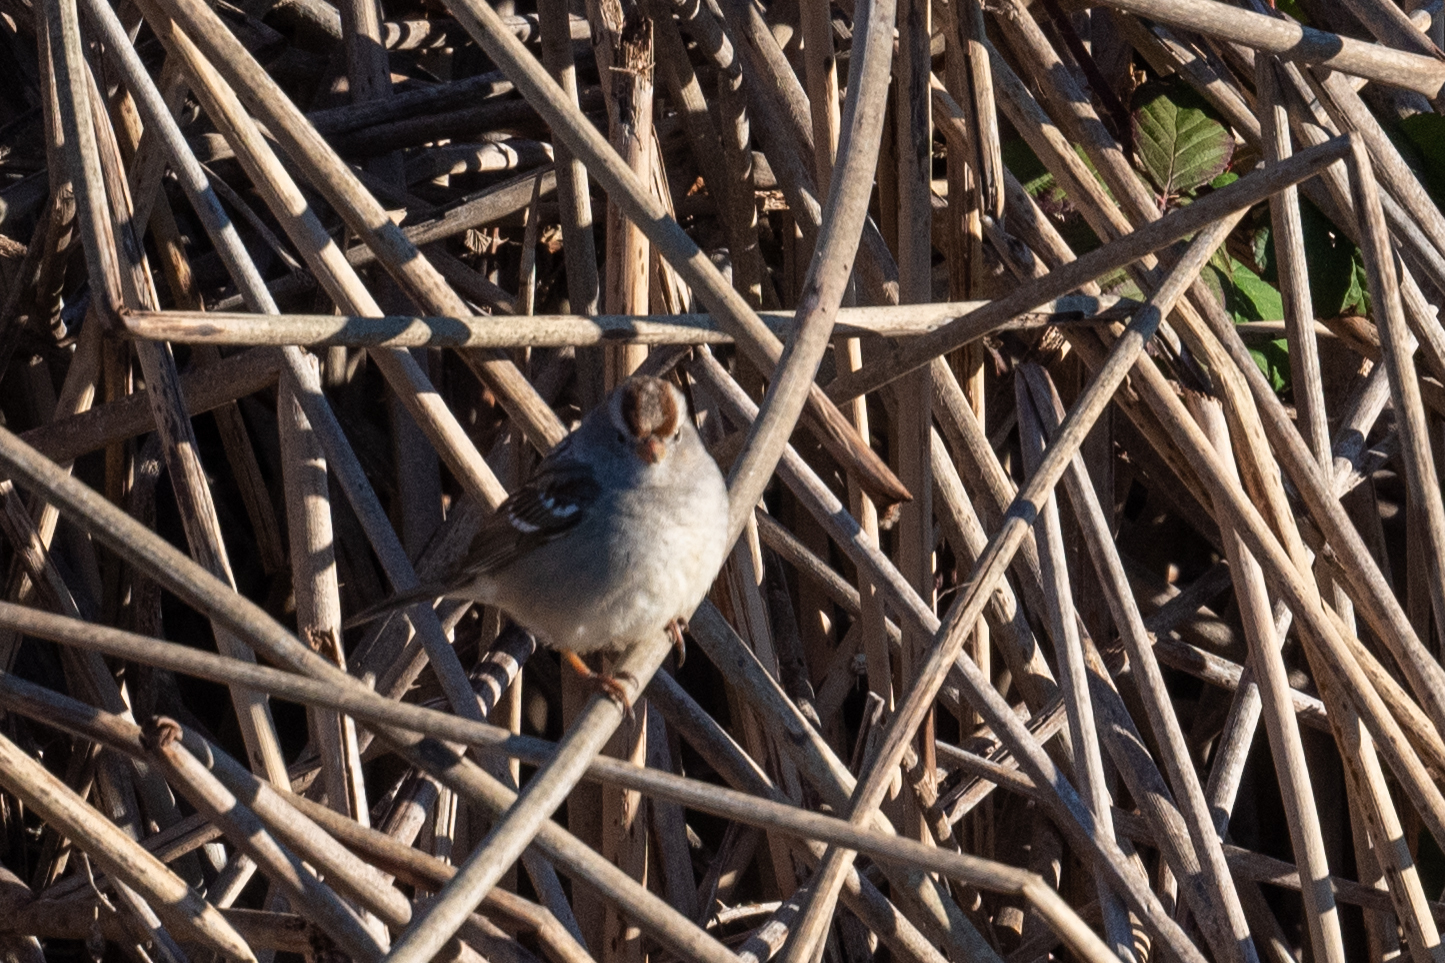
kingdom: Animalia
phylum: Chordata
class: Aves
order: Passeriformes
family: Passerellidae
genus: Zonotrichia
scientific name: Zonotrichia leucophrys
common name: White-crowned sparrow
